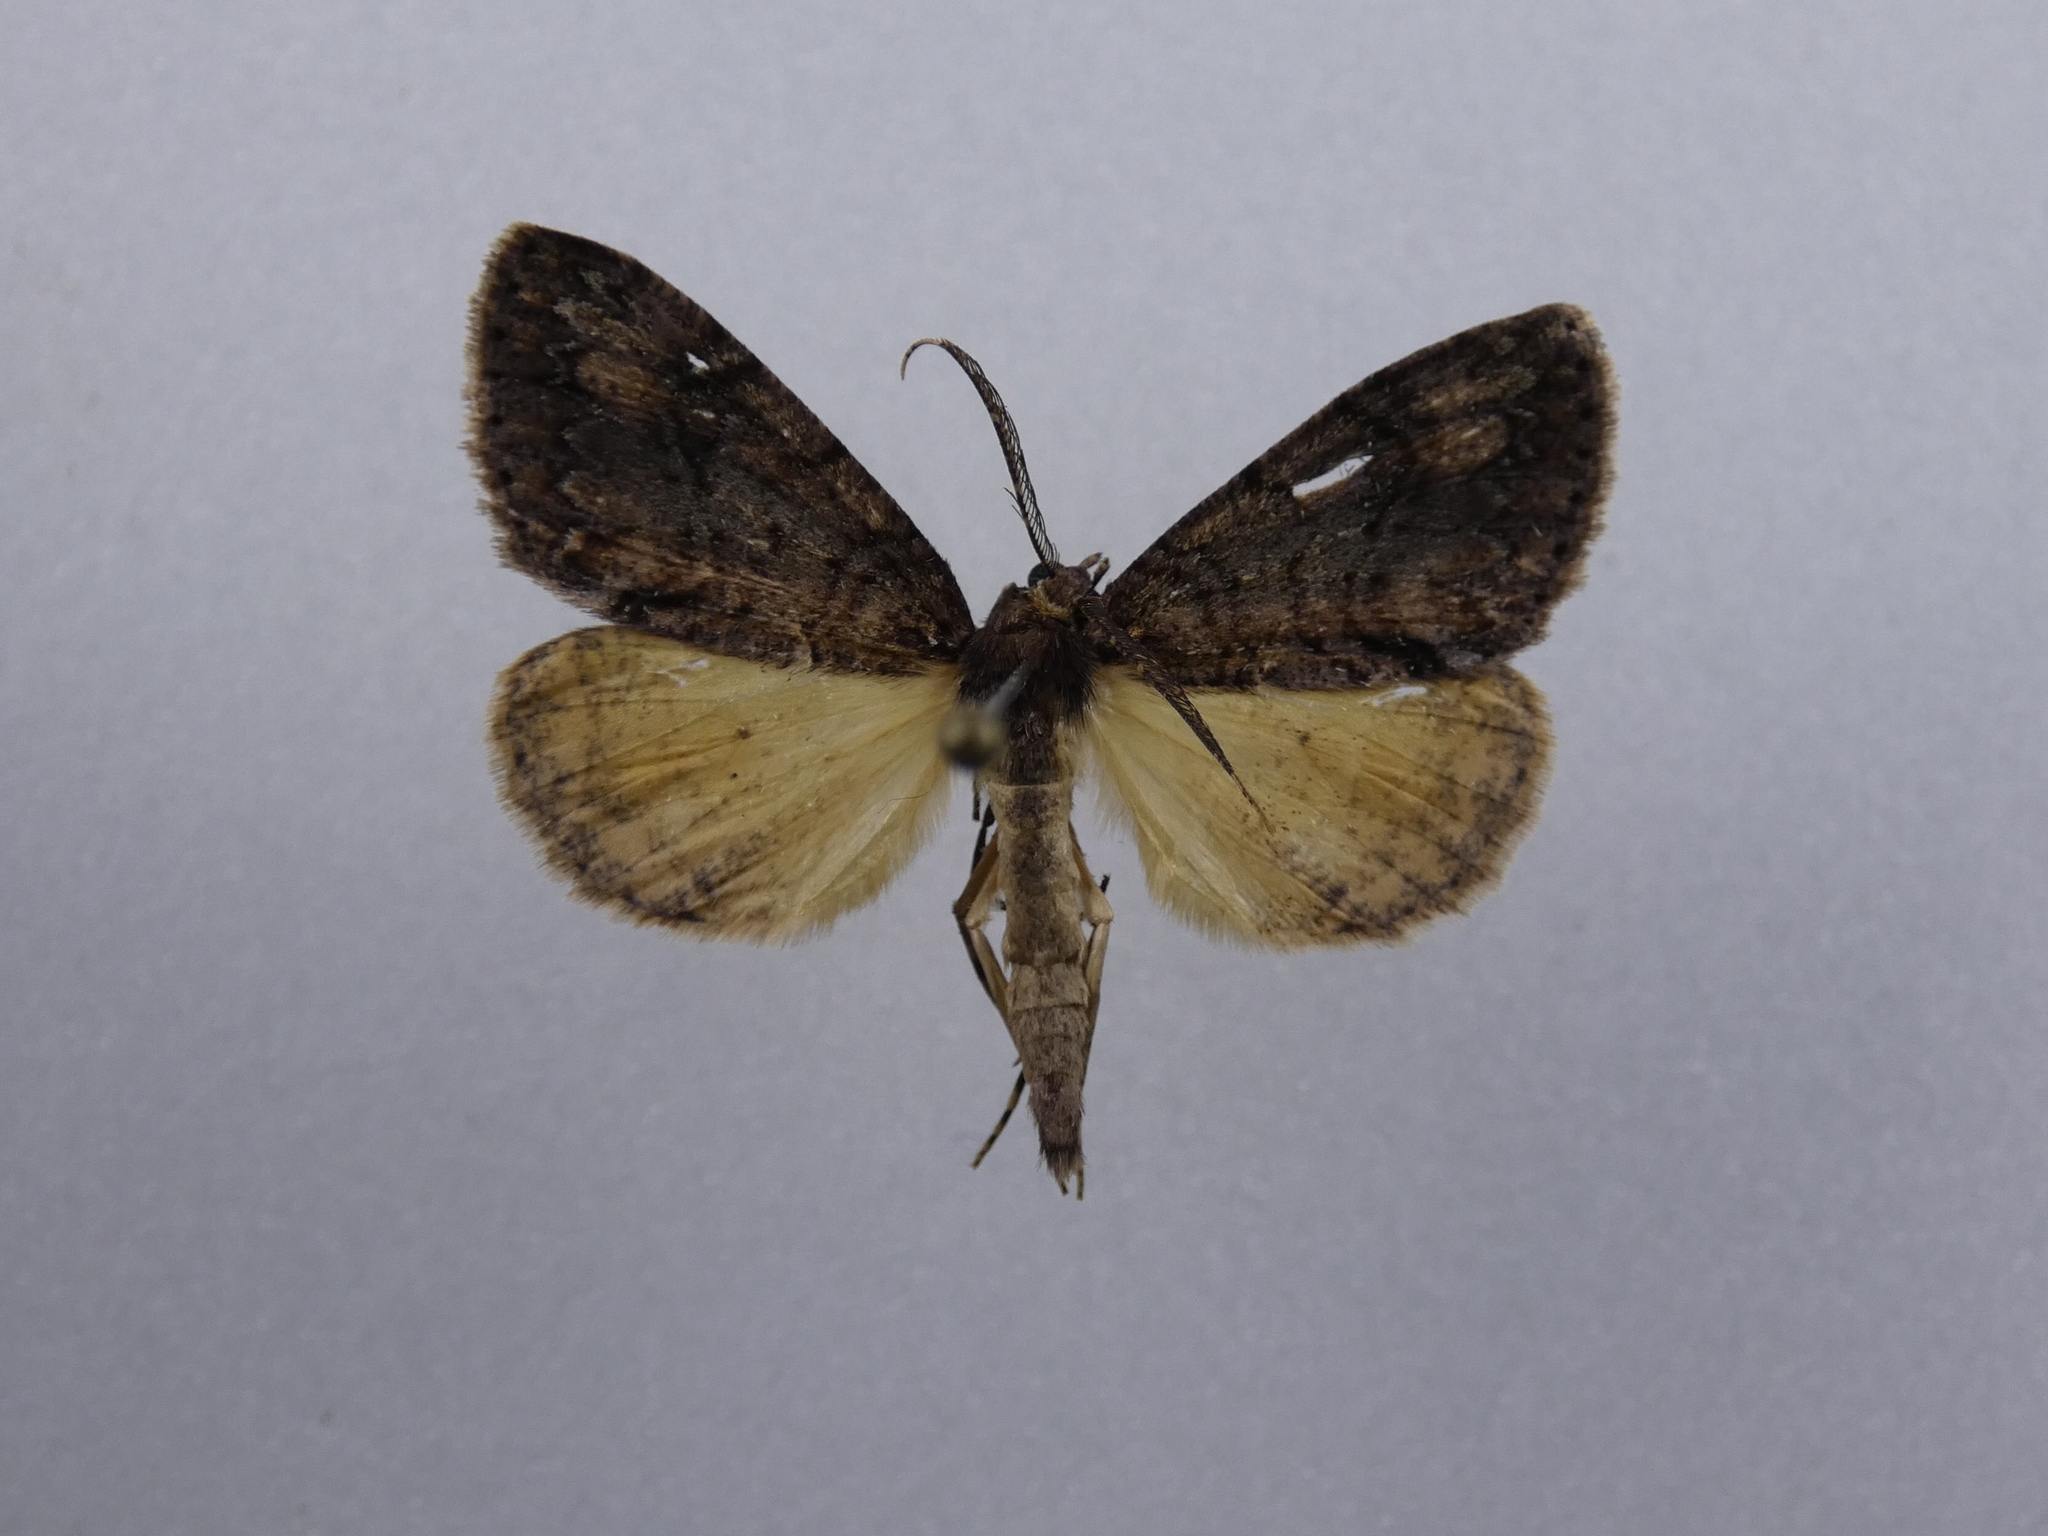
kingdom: Animalia
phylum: Arthropoda
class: Insecta
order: Lepidoptera
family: Geometridae
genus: Pseudocoremia
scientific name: Pseudocoremia suavis
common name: Common forest looper
